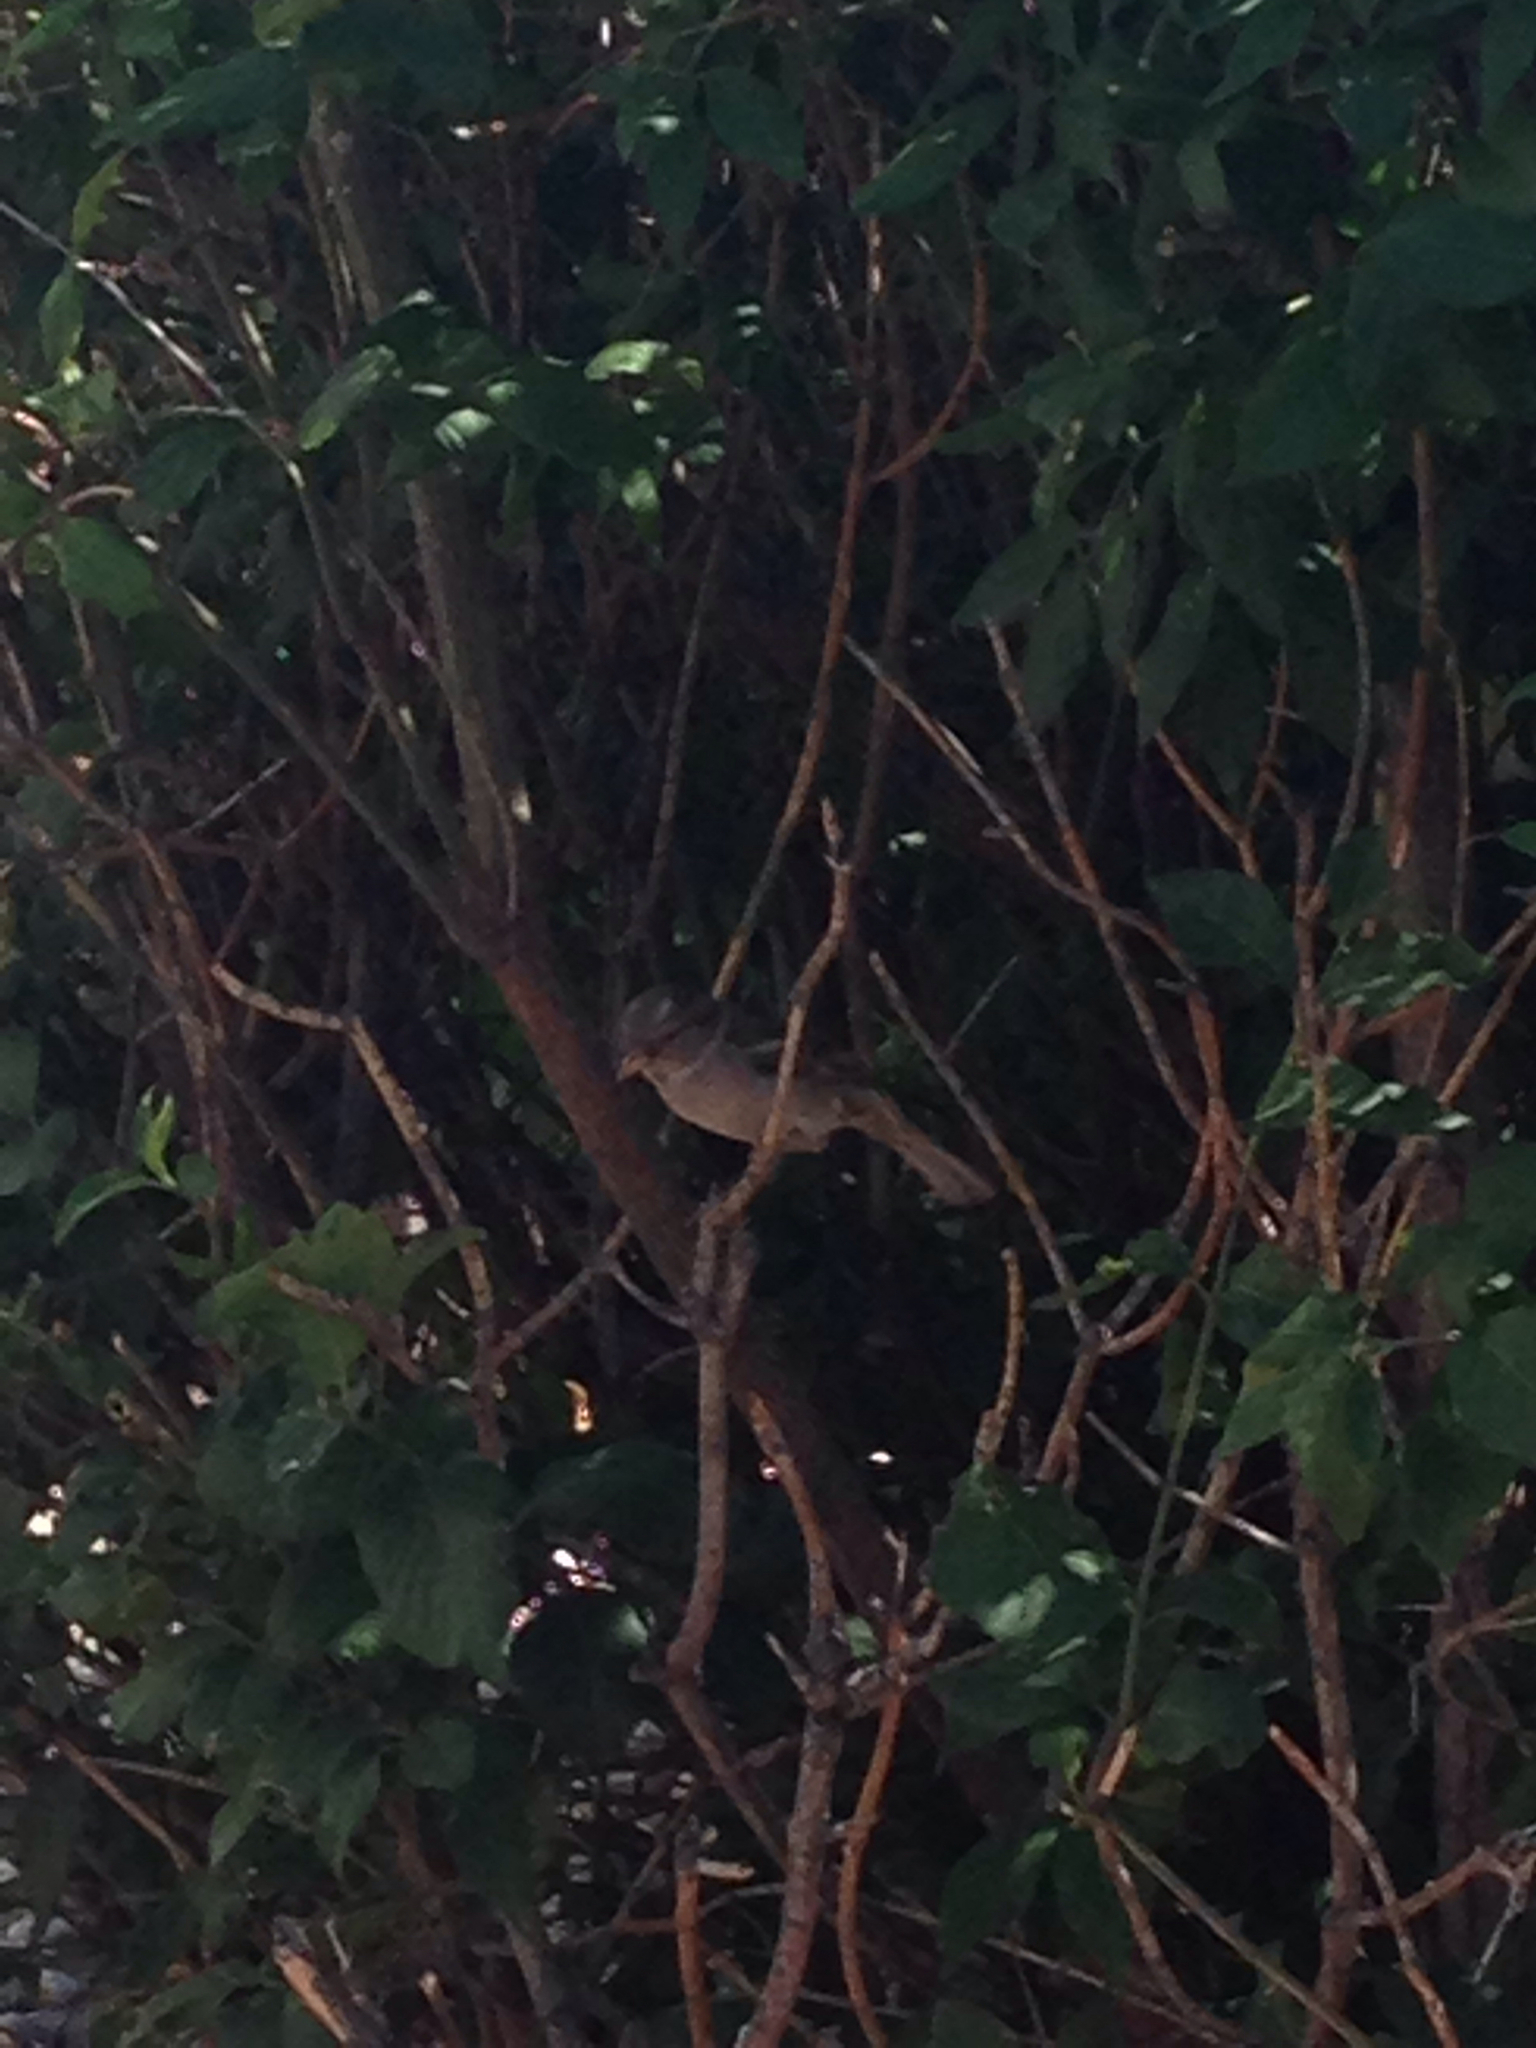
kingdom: Animalia
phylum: Chordata
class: Aves
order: Passeriformes
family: Passeridae
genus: Passer
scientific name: Passer domesticus
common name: House sparrow
